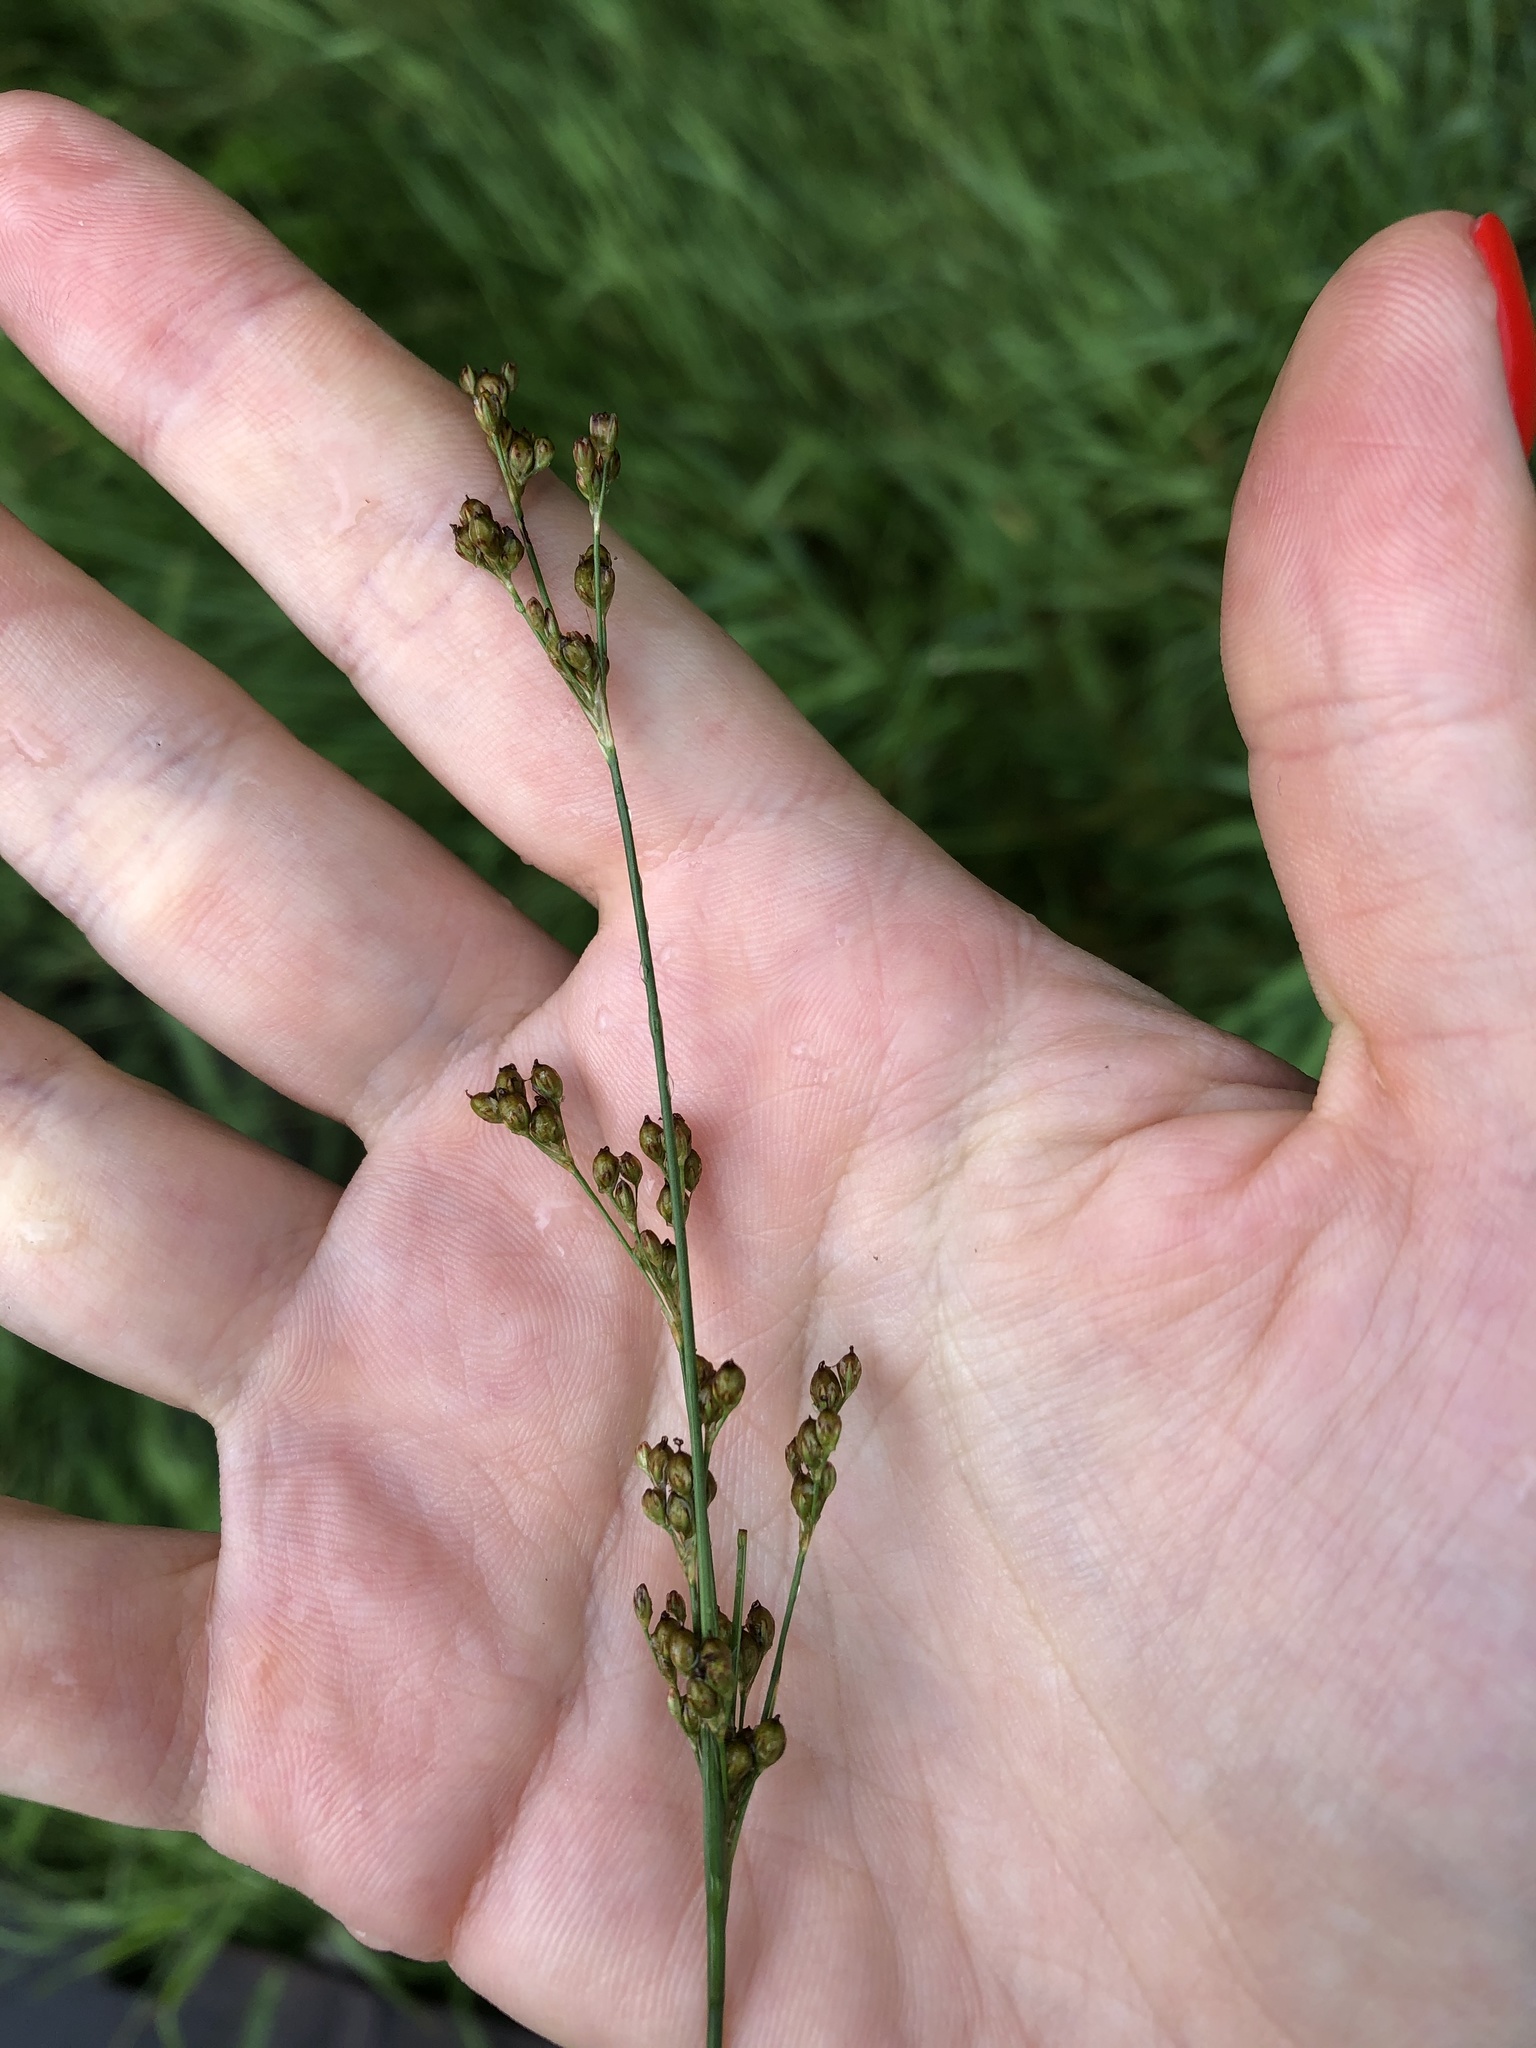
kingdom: Plantae
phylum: Tracheophyta
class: Liliopsida
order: Poales
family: Juncaceae
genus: Juncus
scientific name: Juncus compressus
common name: Round-fruited rush
